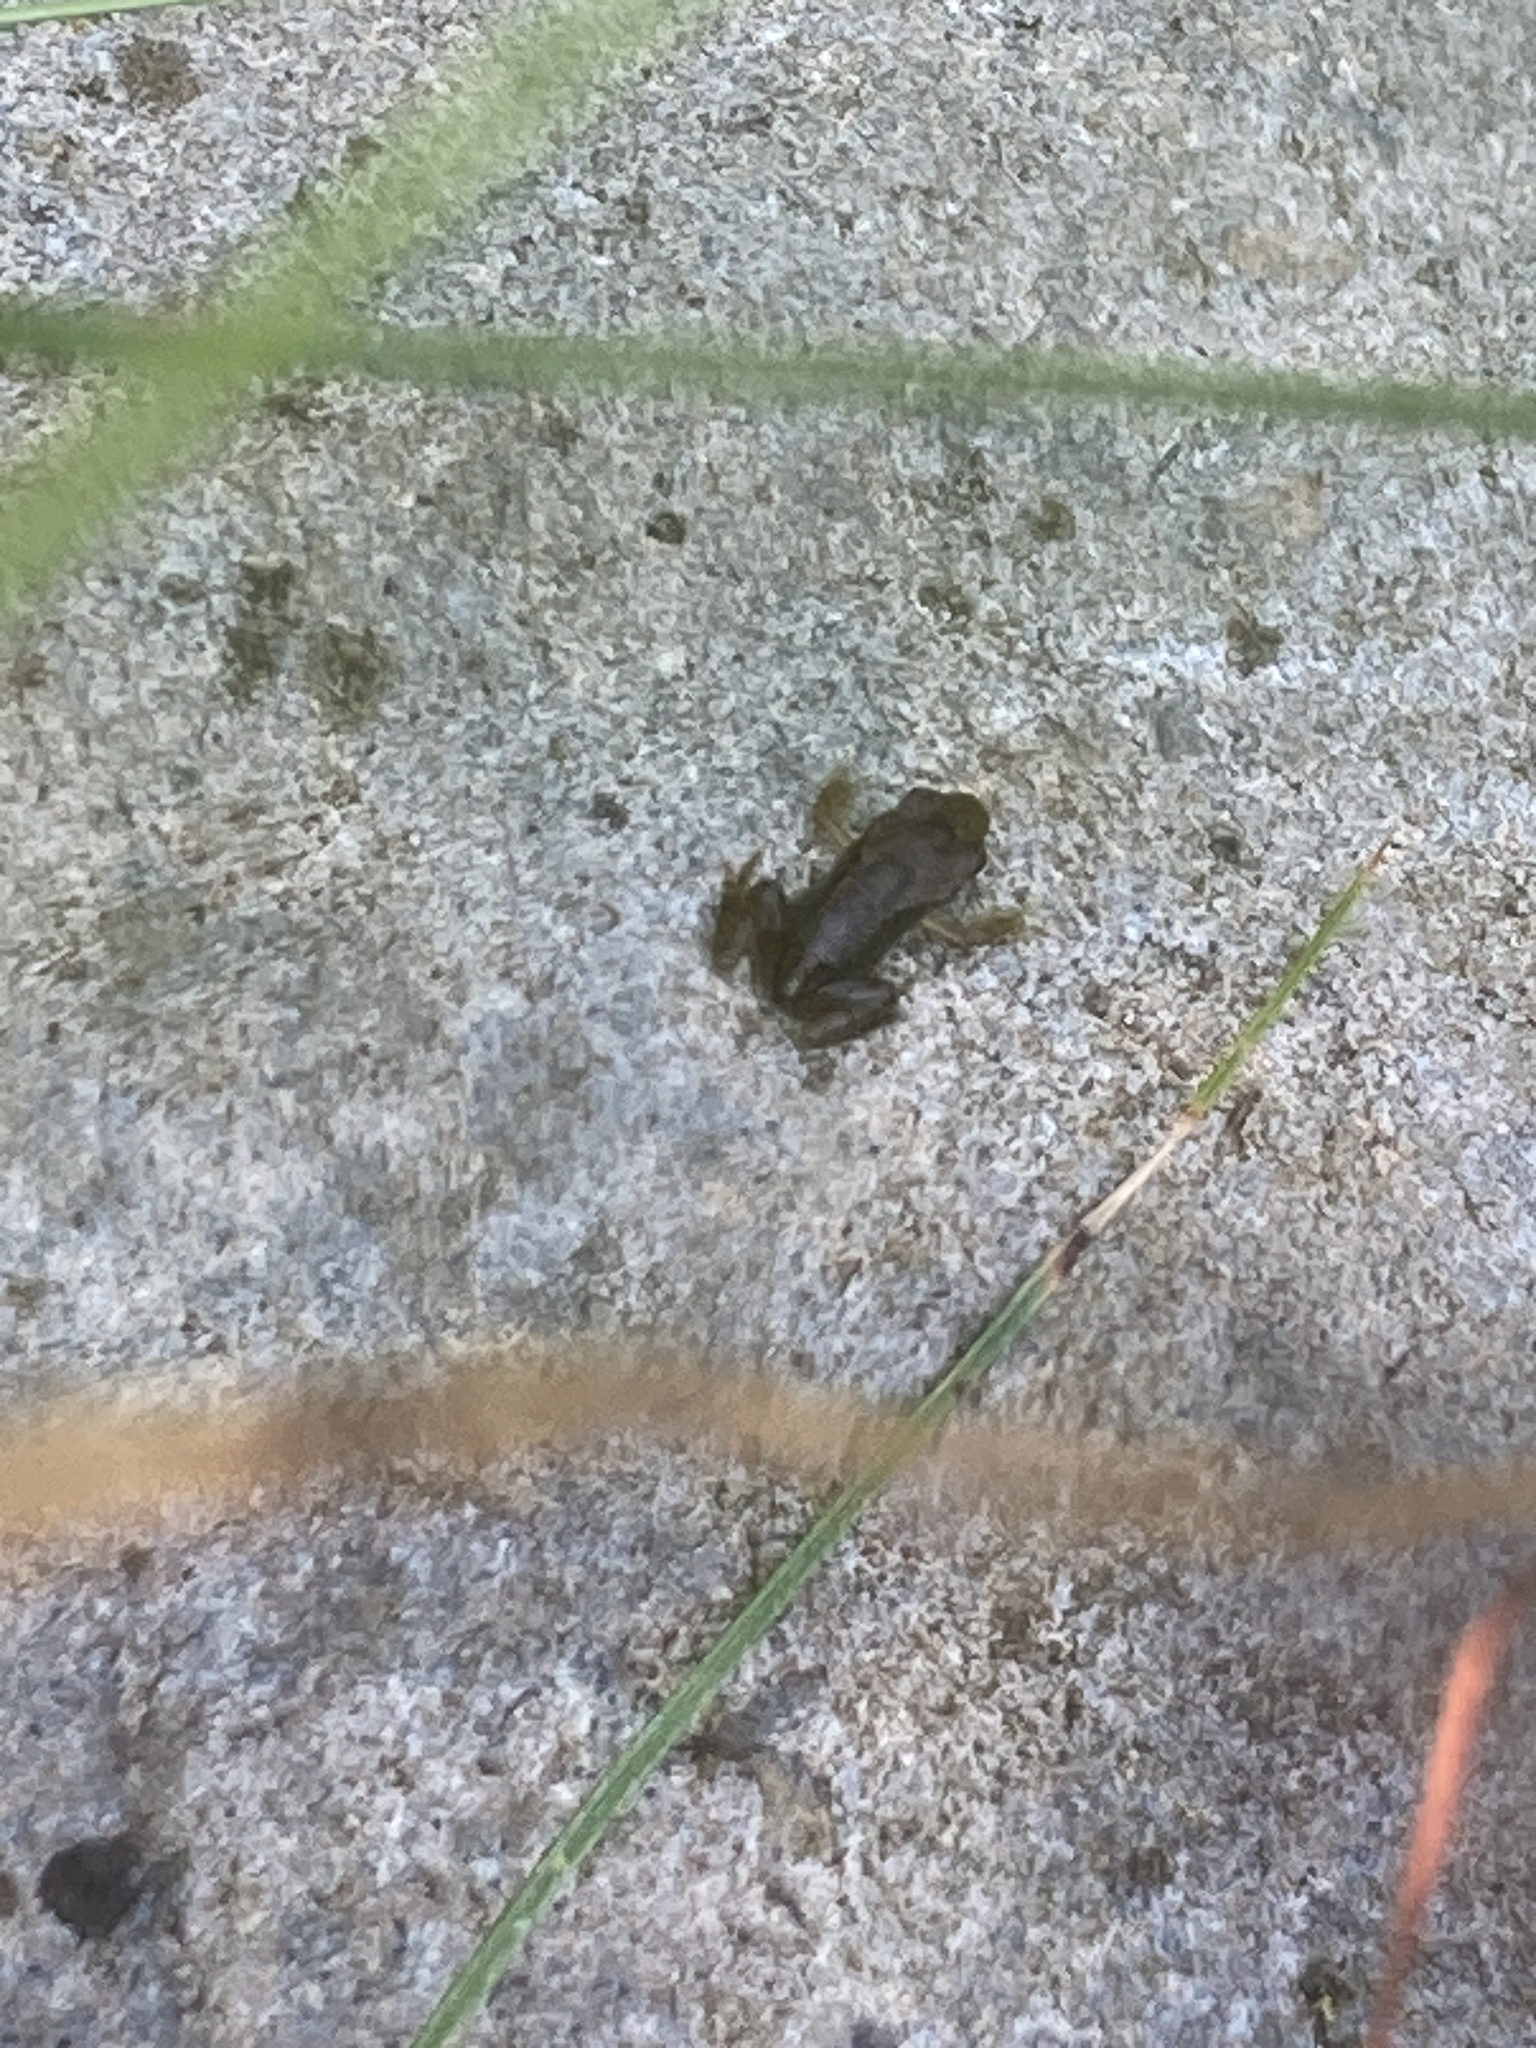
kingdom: Animalia
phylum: Chordata
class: Amphibia
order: Anura
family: Ranidae
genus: Rana
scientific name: Rana temporaria
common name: Common frog
